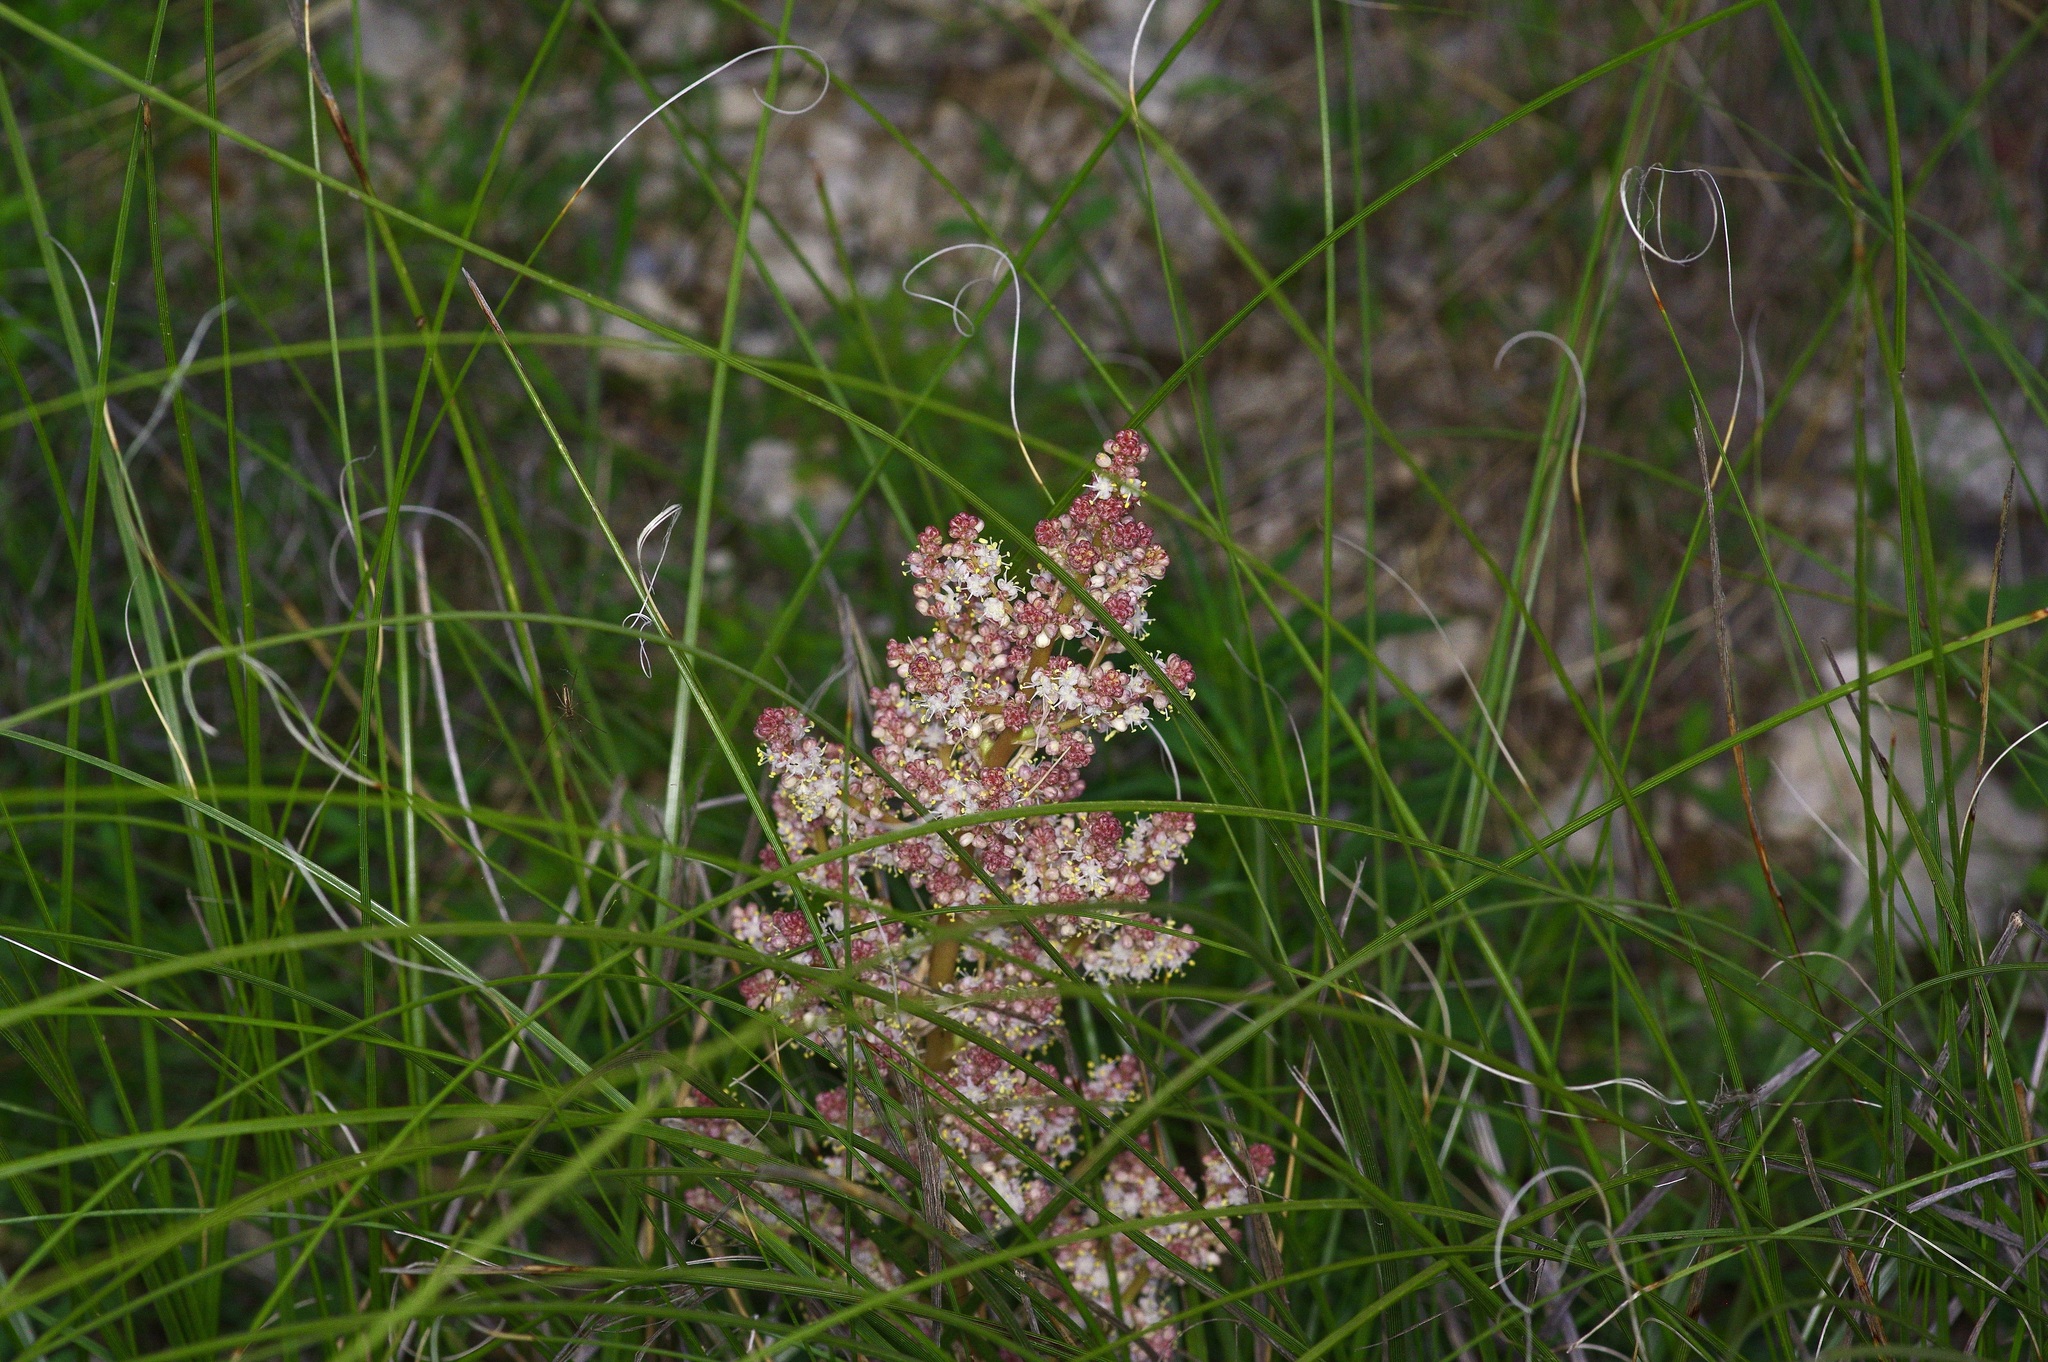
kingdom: Plantae
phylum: Tracheophyta
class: Liliopsida
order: Asparagales
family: Asparagaceae
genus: Nolina
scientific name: Nolina texana
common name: Texas sacahuiste
